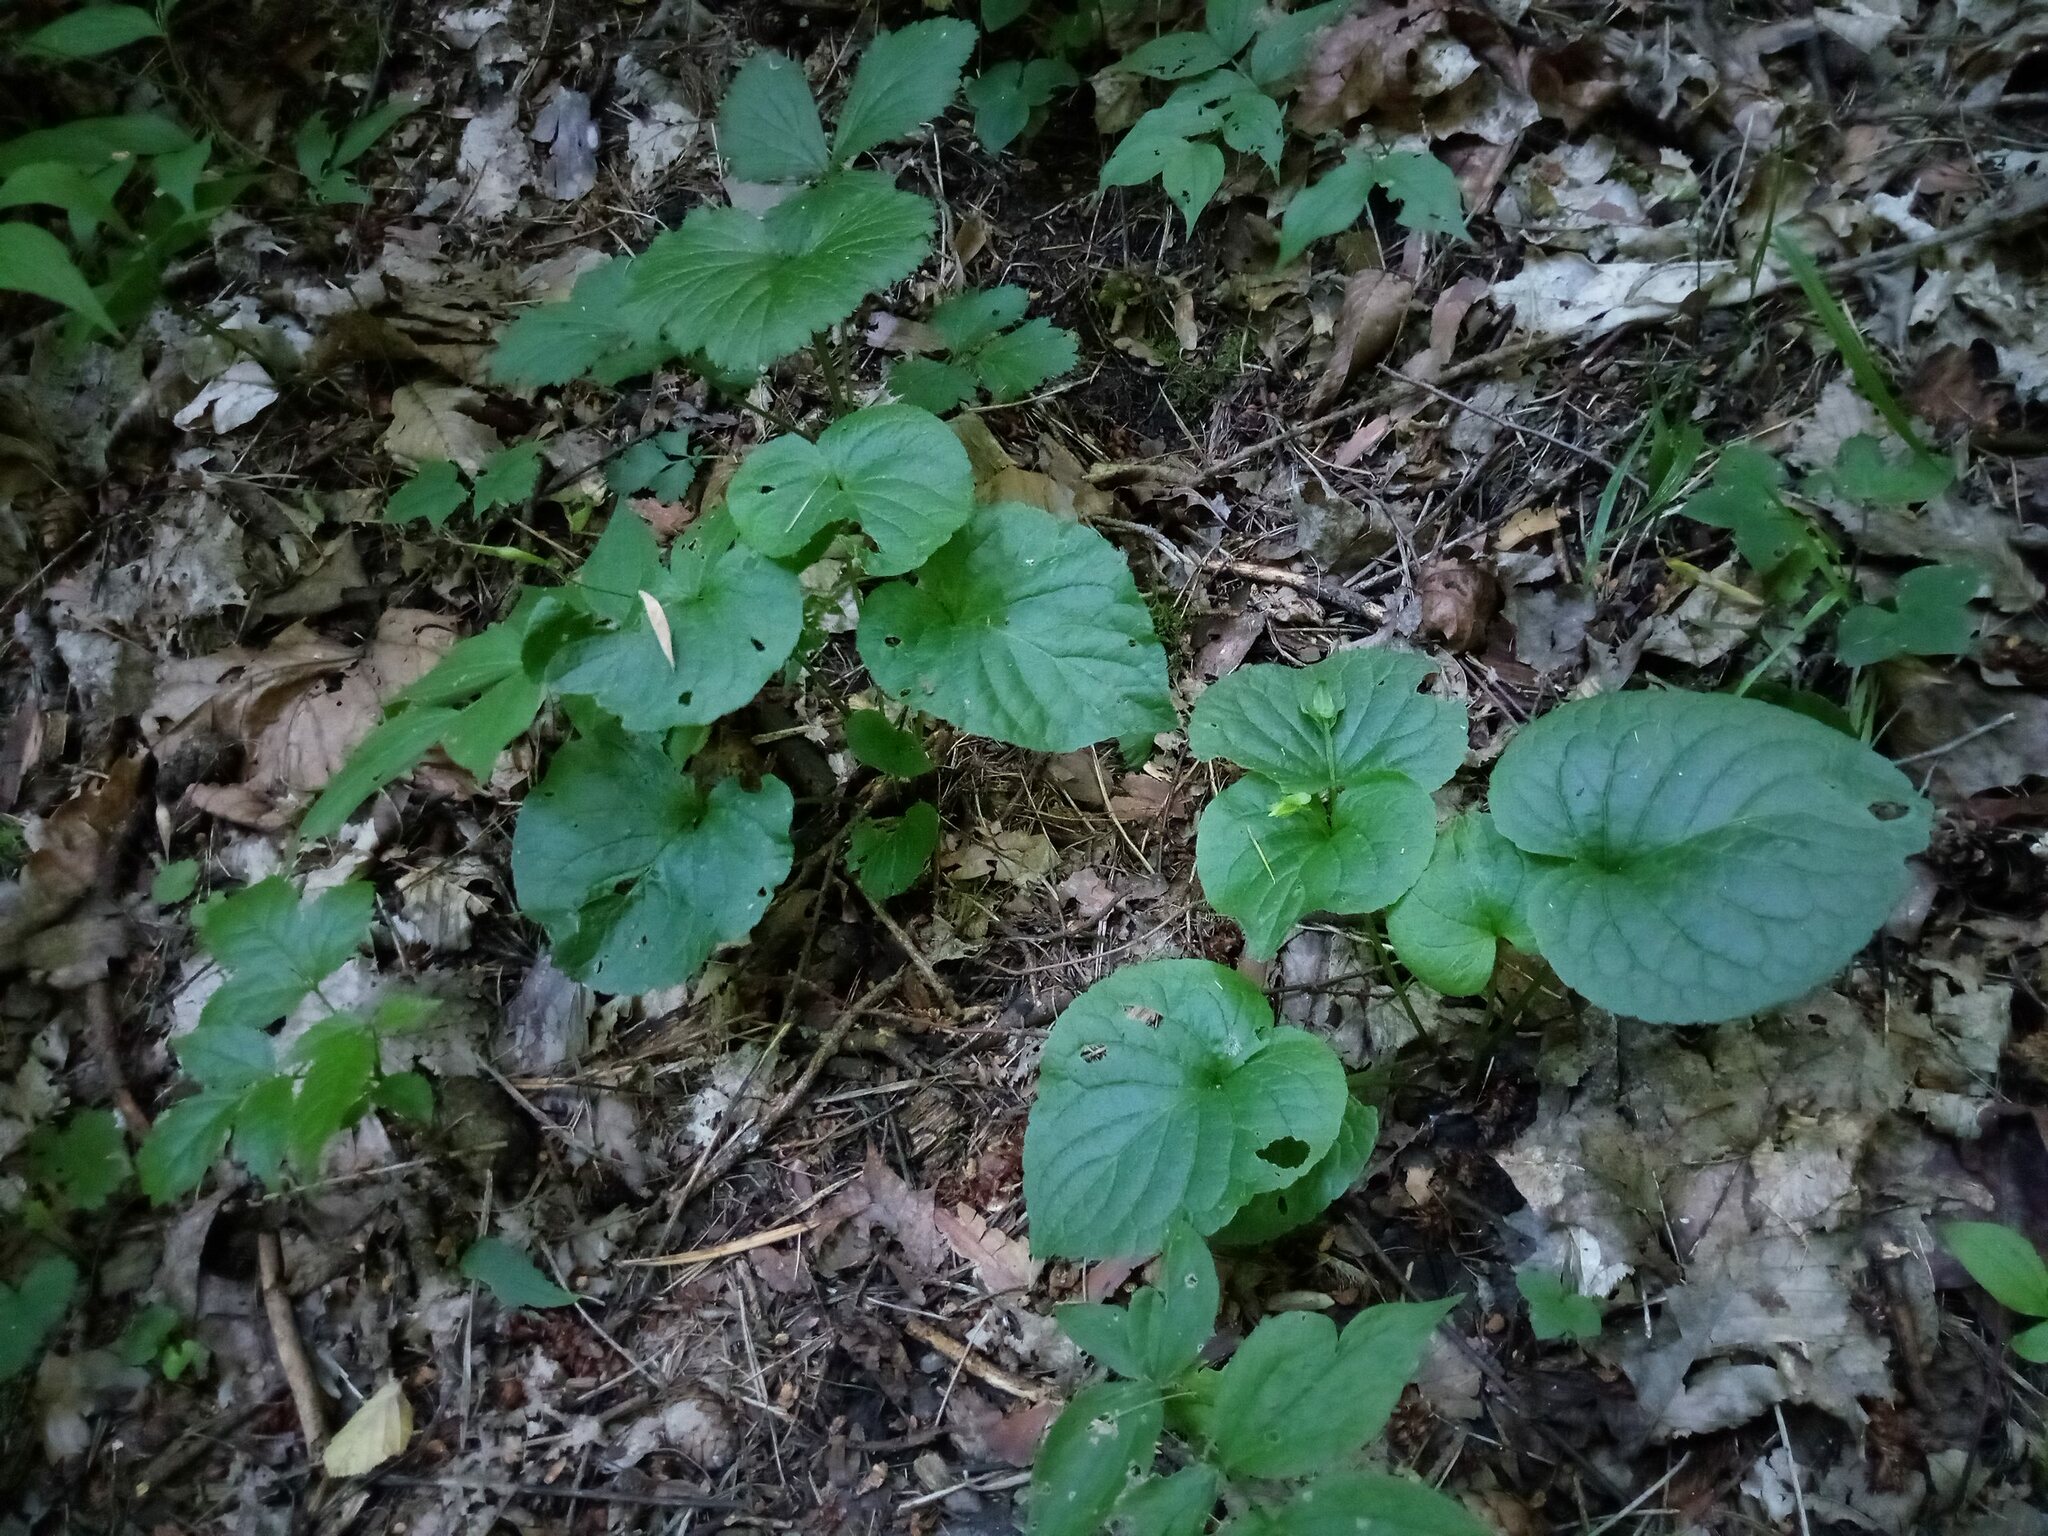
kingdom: Plantae
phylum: Tracheophyta
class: Magnoliopsida
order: Malpighiales
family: Violaceae
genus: Viola
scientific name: Viola mirabilis
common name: Wonder violet
